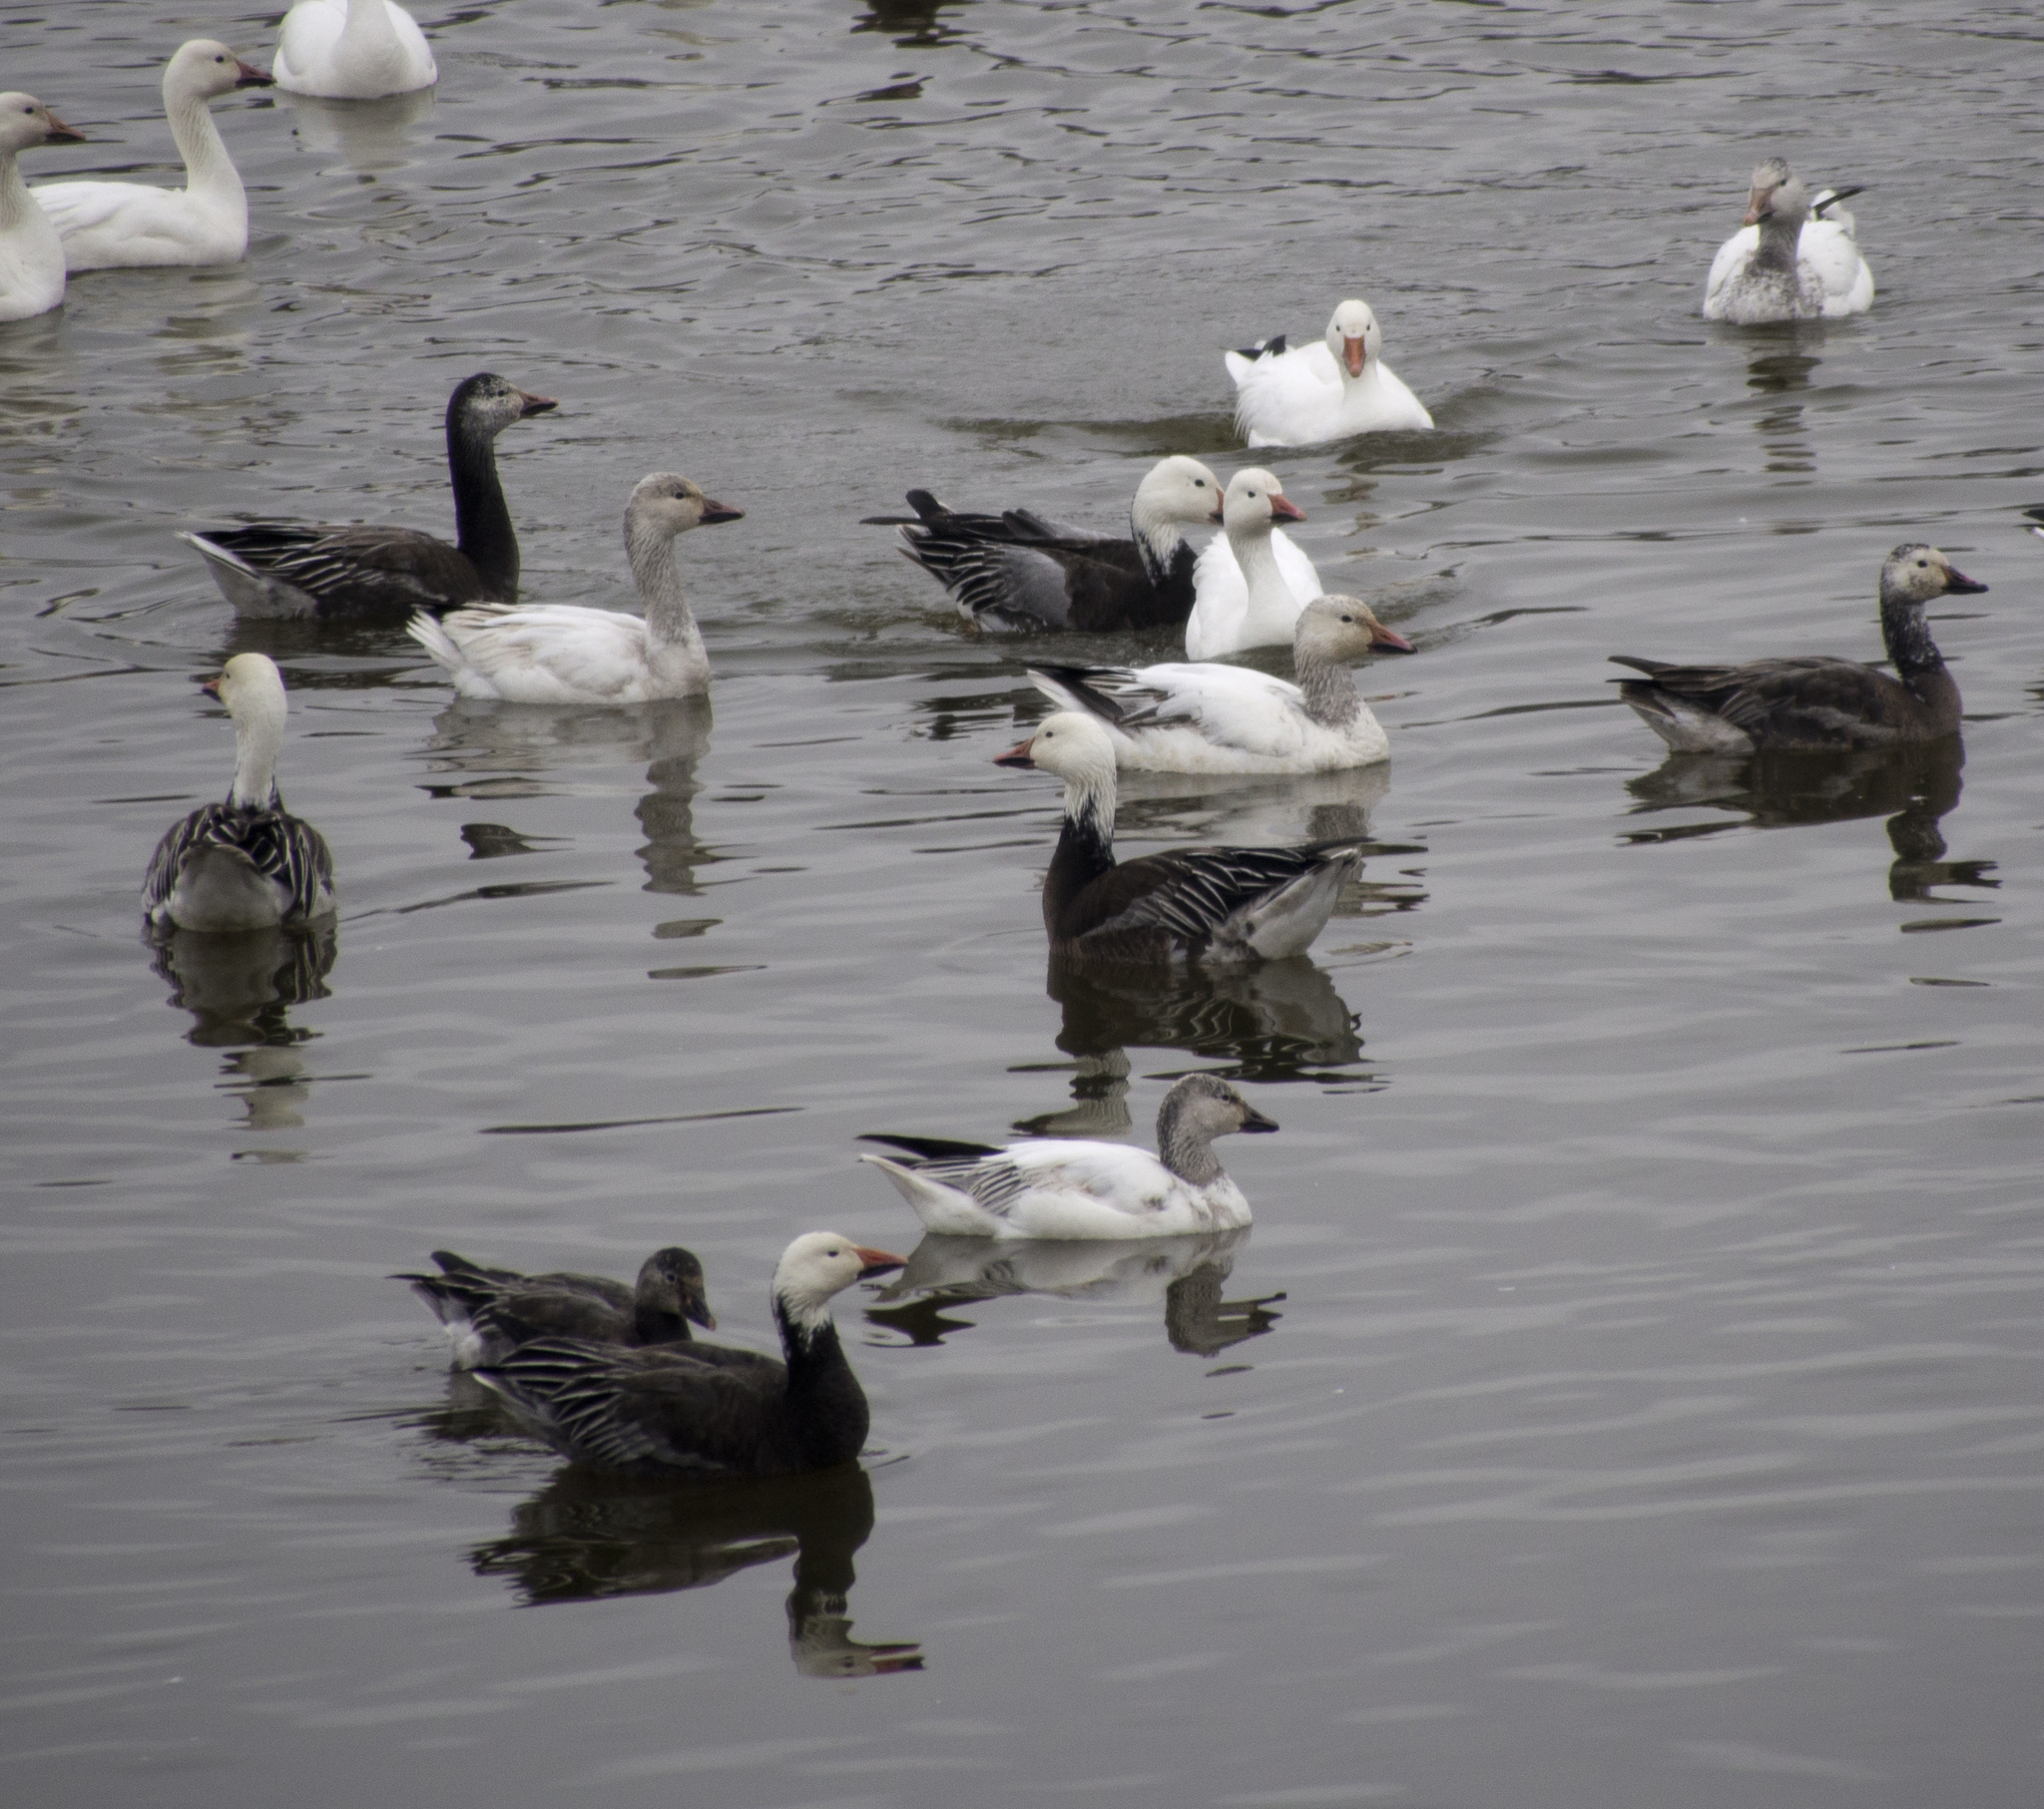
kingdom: Animalia
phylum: Chordata
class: Aves
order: Anseriformes
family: Anatidae
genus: Anser
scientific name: Anser caerulescens
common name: Snow goose
